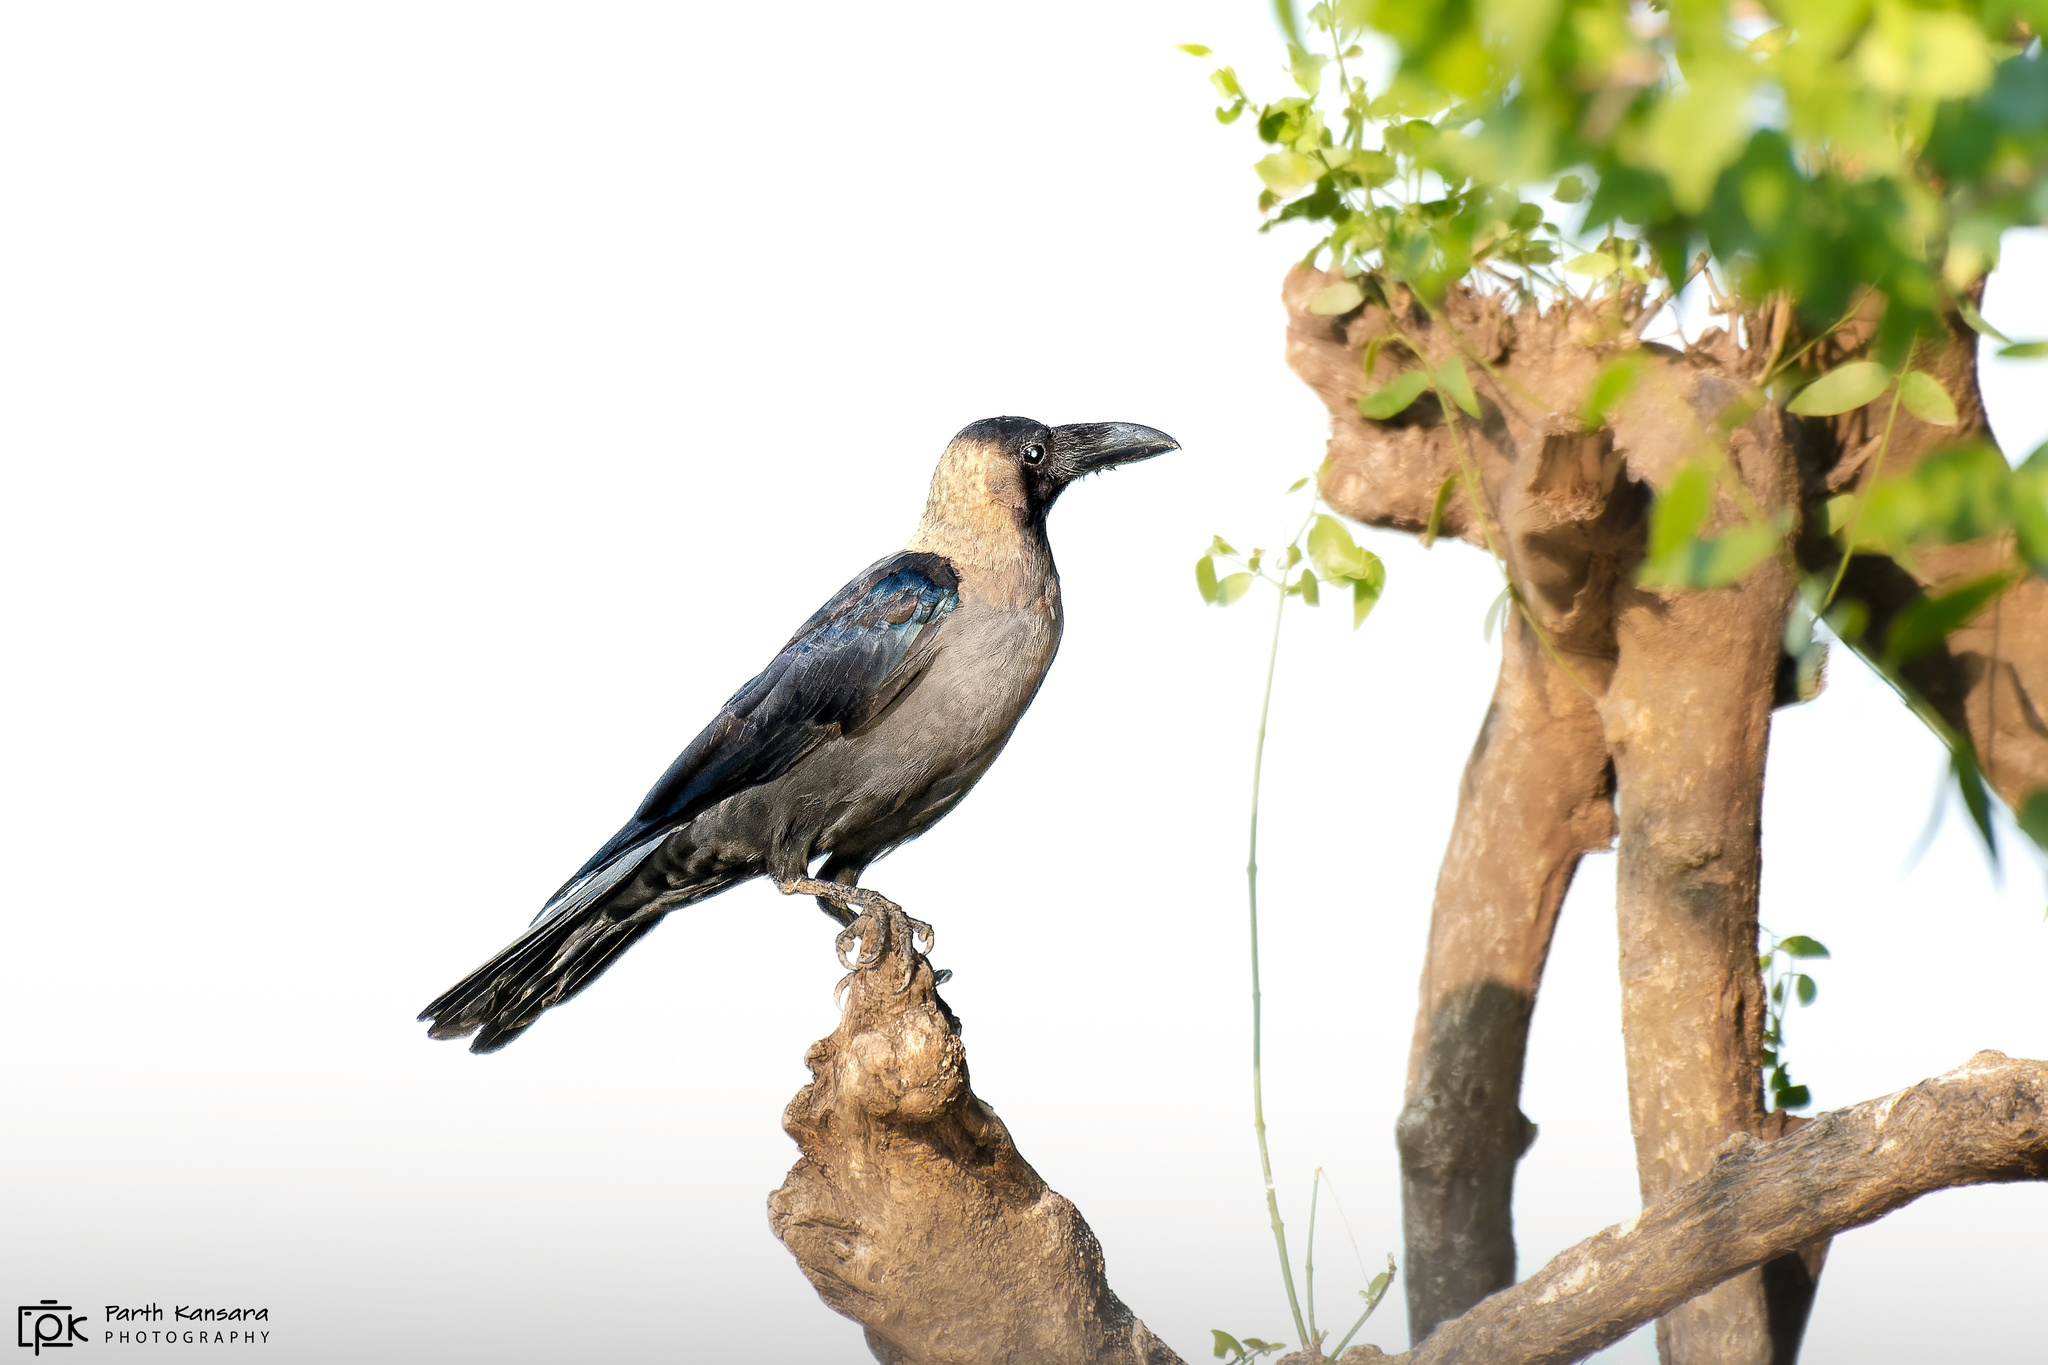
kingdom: Animalia
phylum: Chordata
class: Aves
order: Passeriformes
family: Corvidae
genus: Corvus
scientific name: Corvus splendens
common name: House crow
